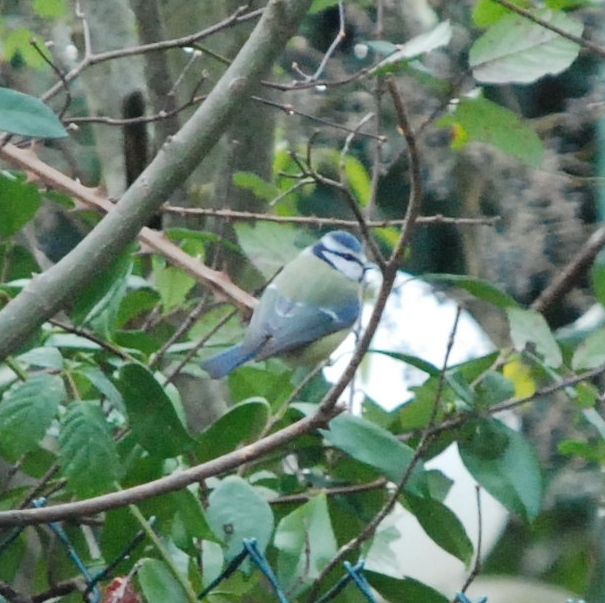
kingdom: Animalia
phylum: Chordata
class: Aves
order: Passeriformes
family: Paridae
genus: Cyanistes
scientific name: Cyanistes caeruleus
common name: Eurasian blue tit
